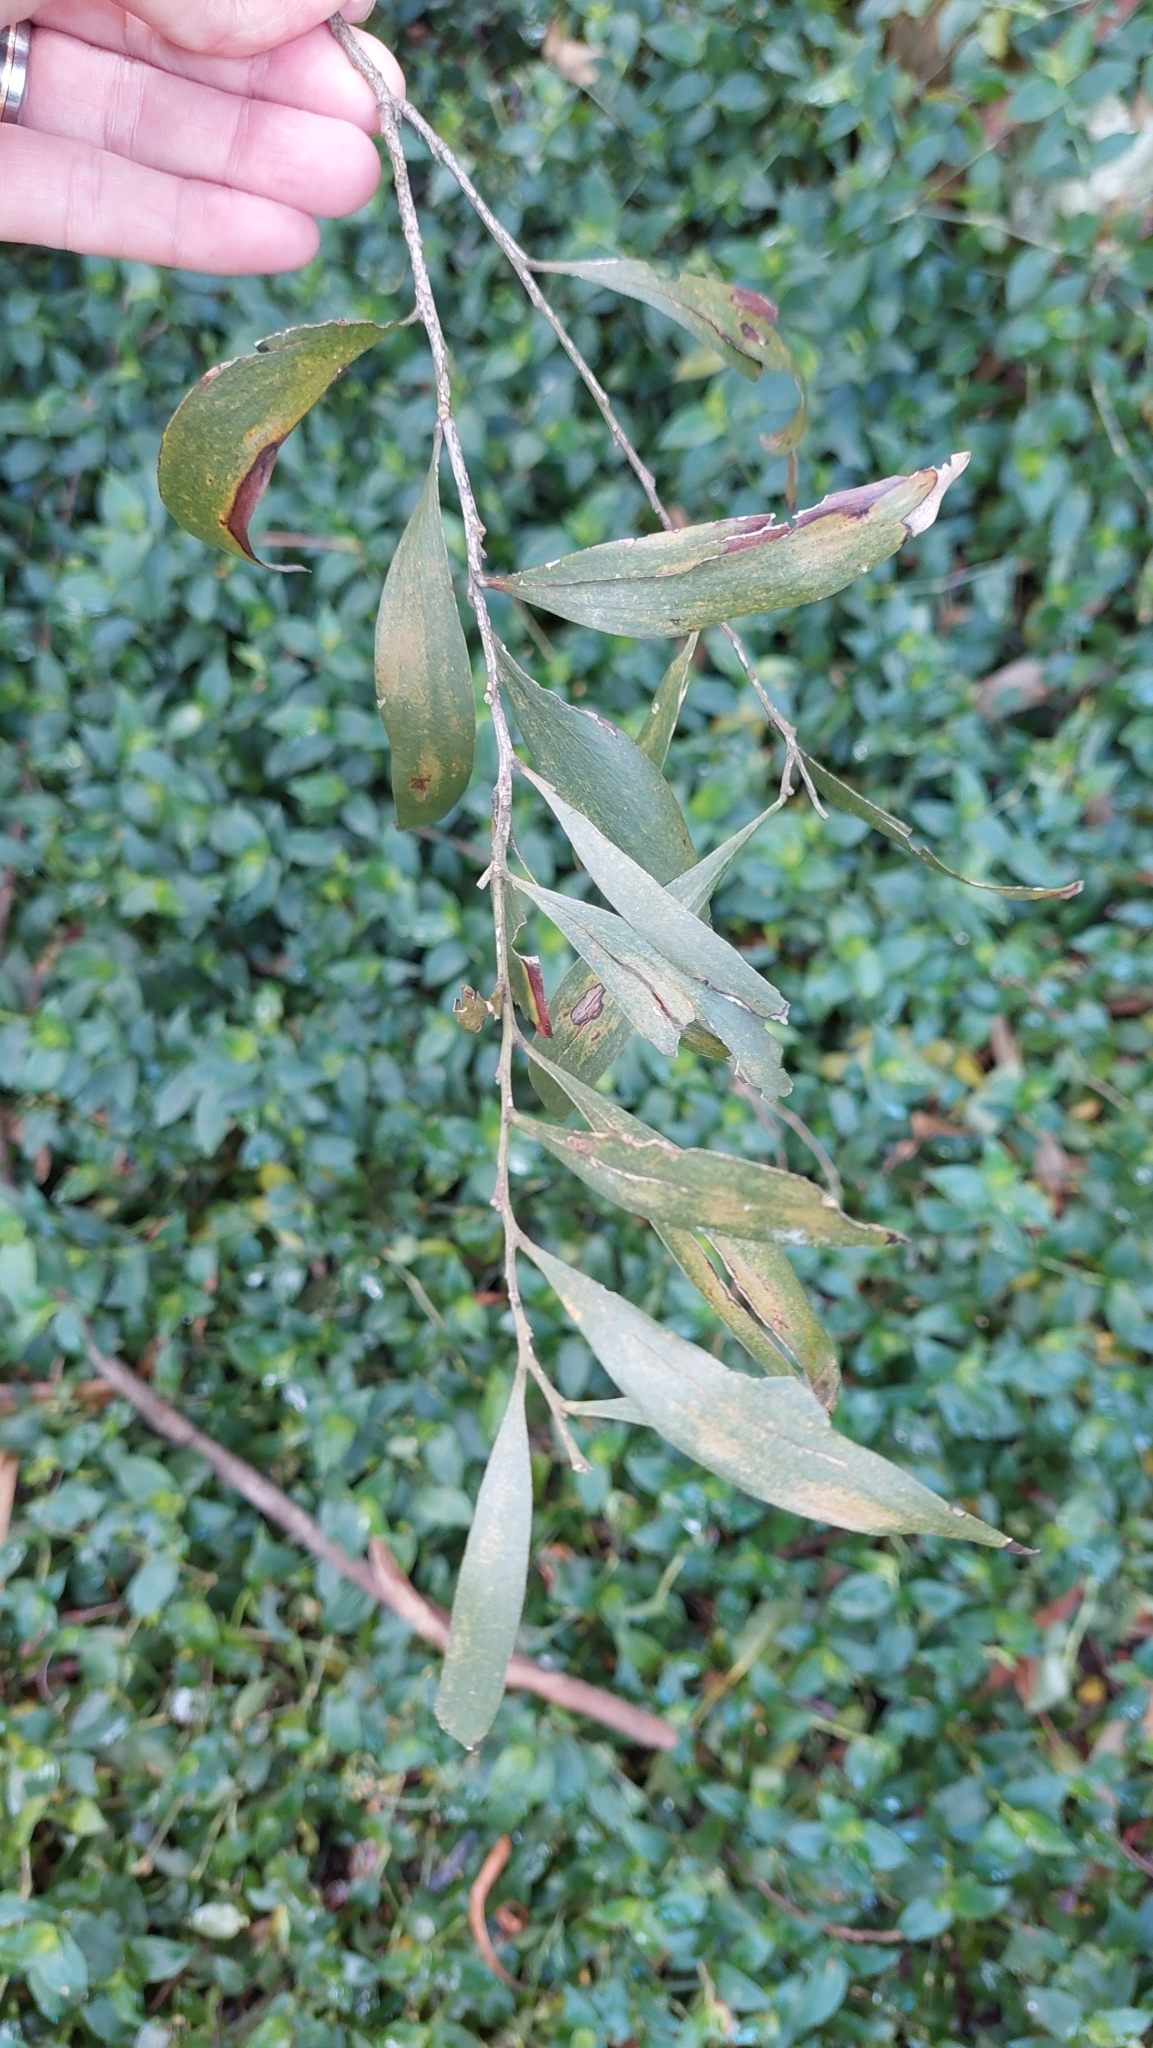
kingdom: Plantae
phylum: Tracheophyta
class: Magnoliopsida
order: Fabales
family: Fabaceae
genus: Acacia
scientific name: Acacia melanoxylon
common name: Blackwood
